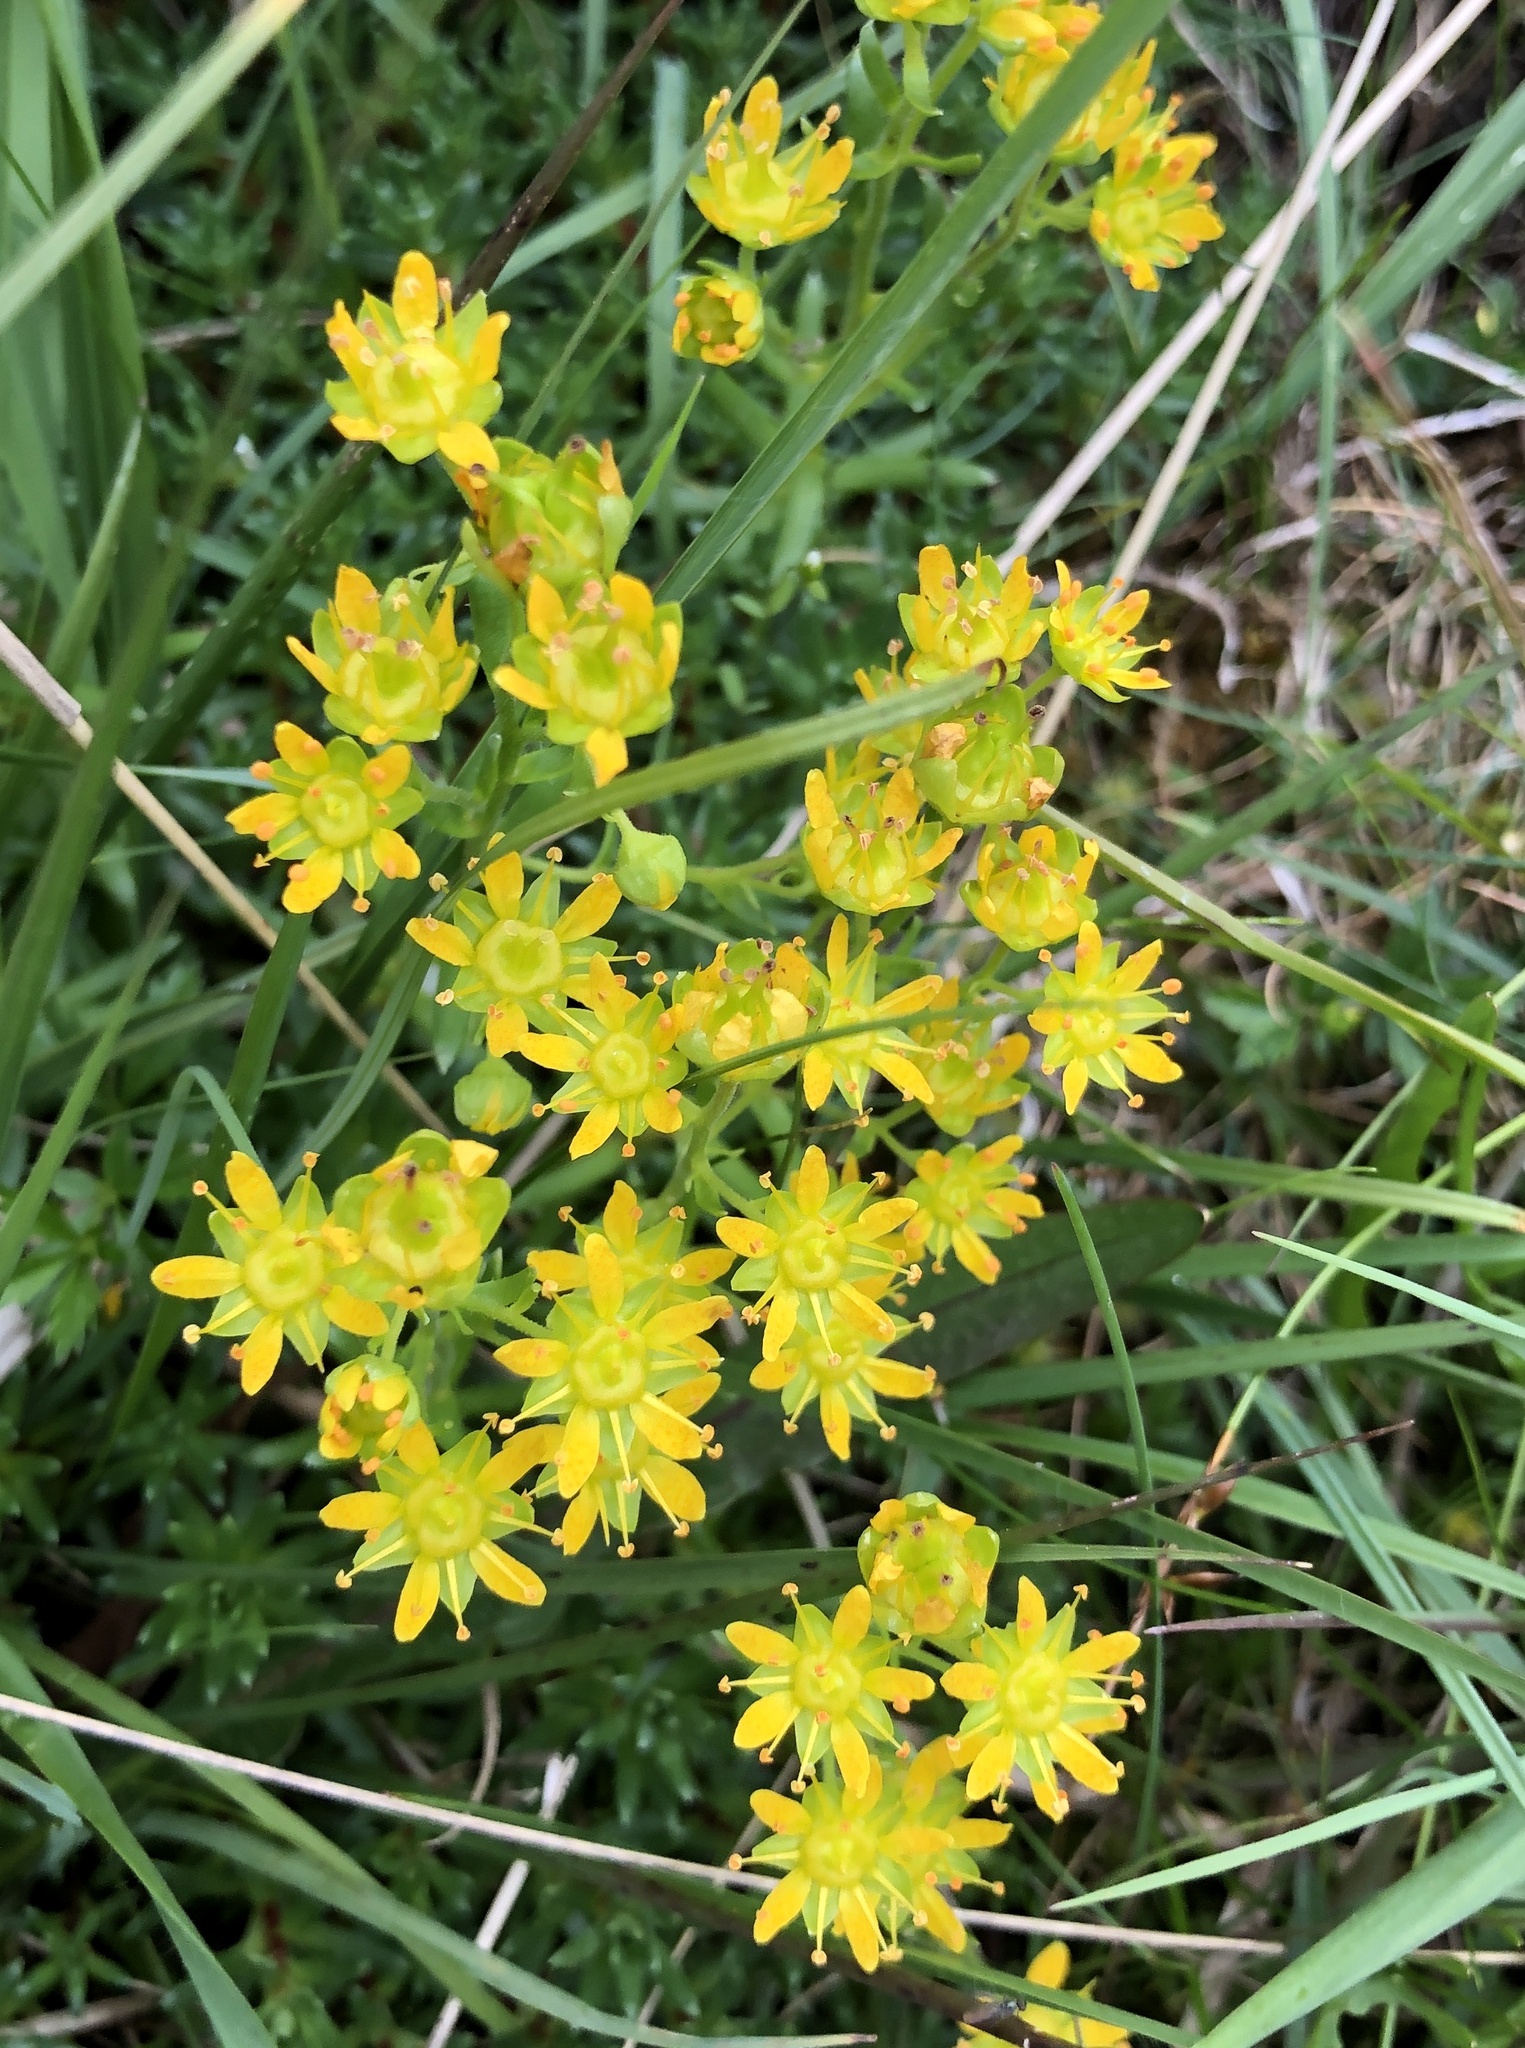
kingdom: Plantae
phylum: Tracheophyta
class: Magnoliopsida
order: Saxifragales
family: Saxifragaceae
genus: Saxifraga
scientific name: Saxifraga aizoides
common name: Yellow mountain saxifrage
